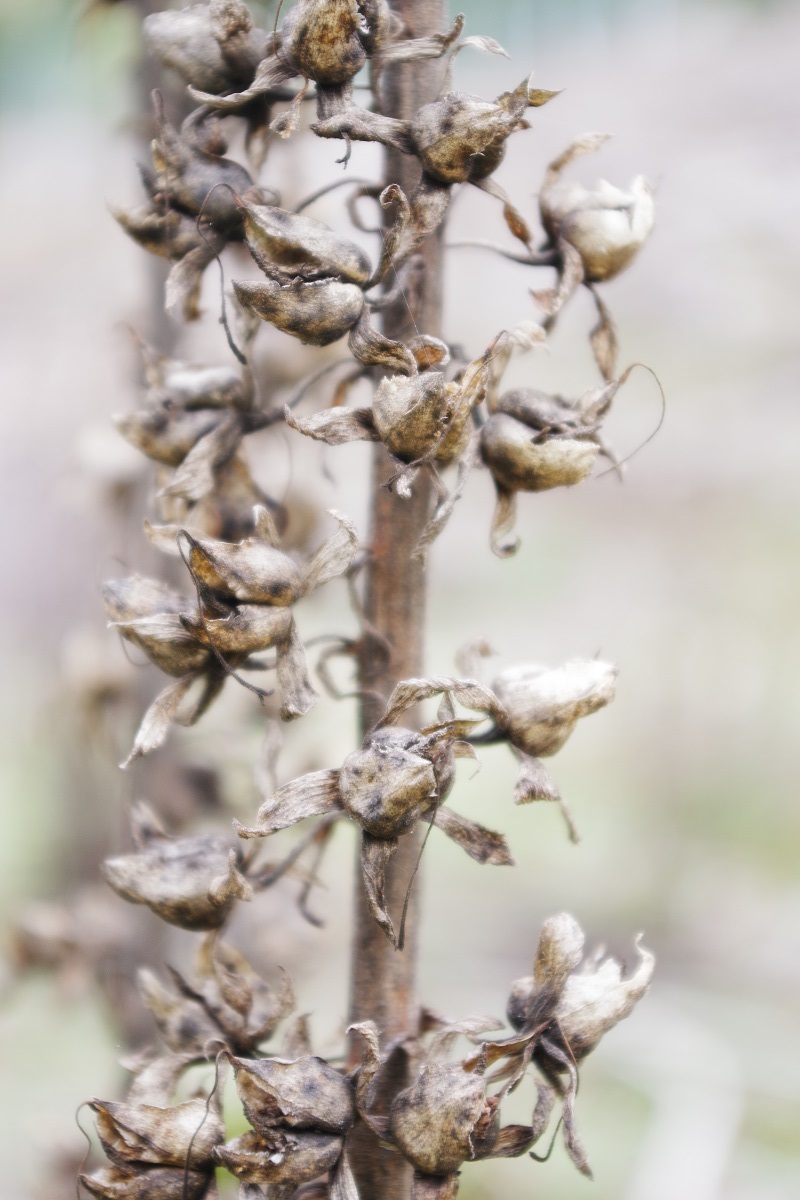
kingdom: Plantae
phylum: Tracheophyta
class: Magnoliopsida
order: Lamiales
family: Plantaginaceae
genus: Digitalis
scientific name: Digitalis purpurea
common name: Foxglove
